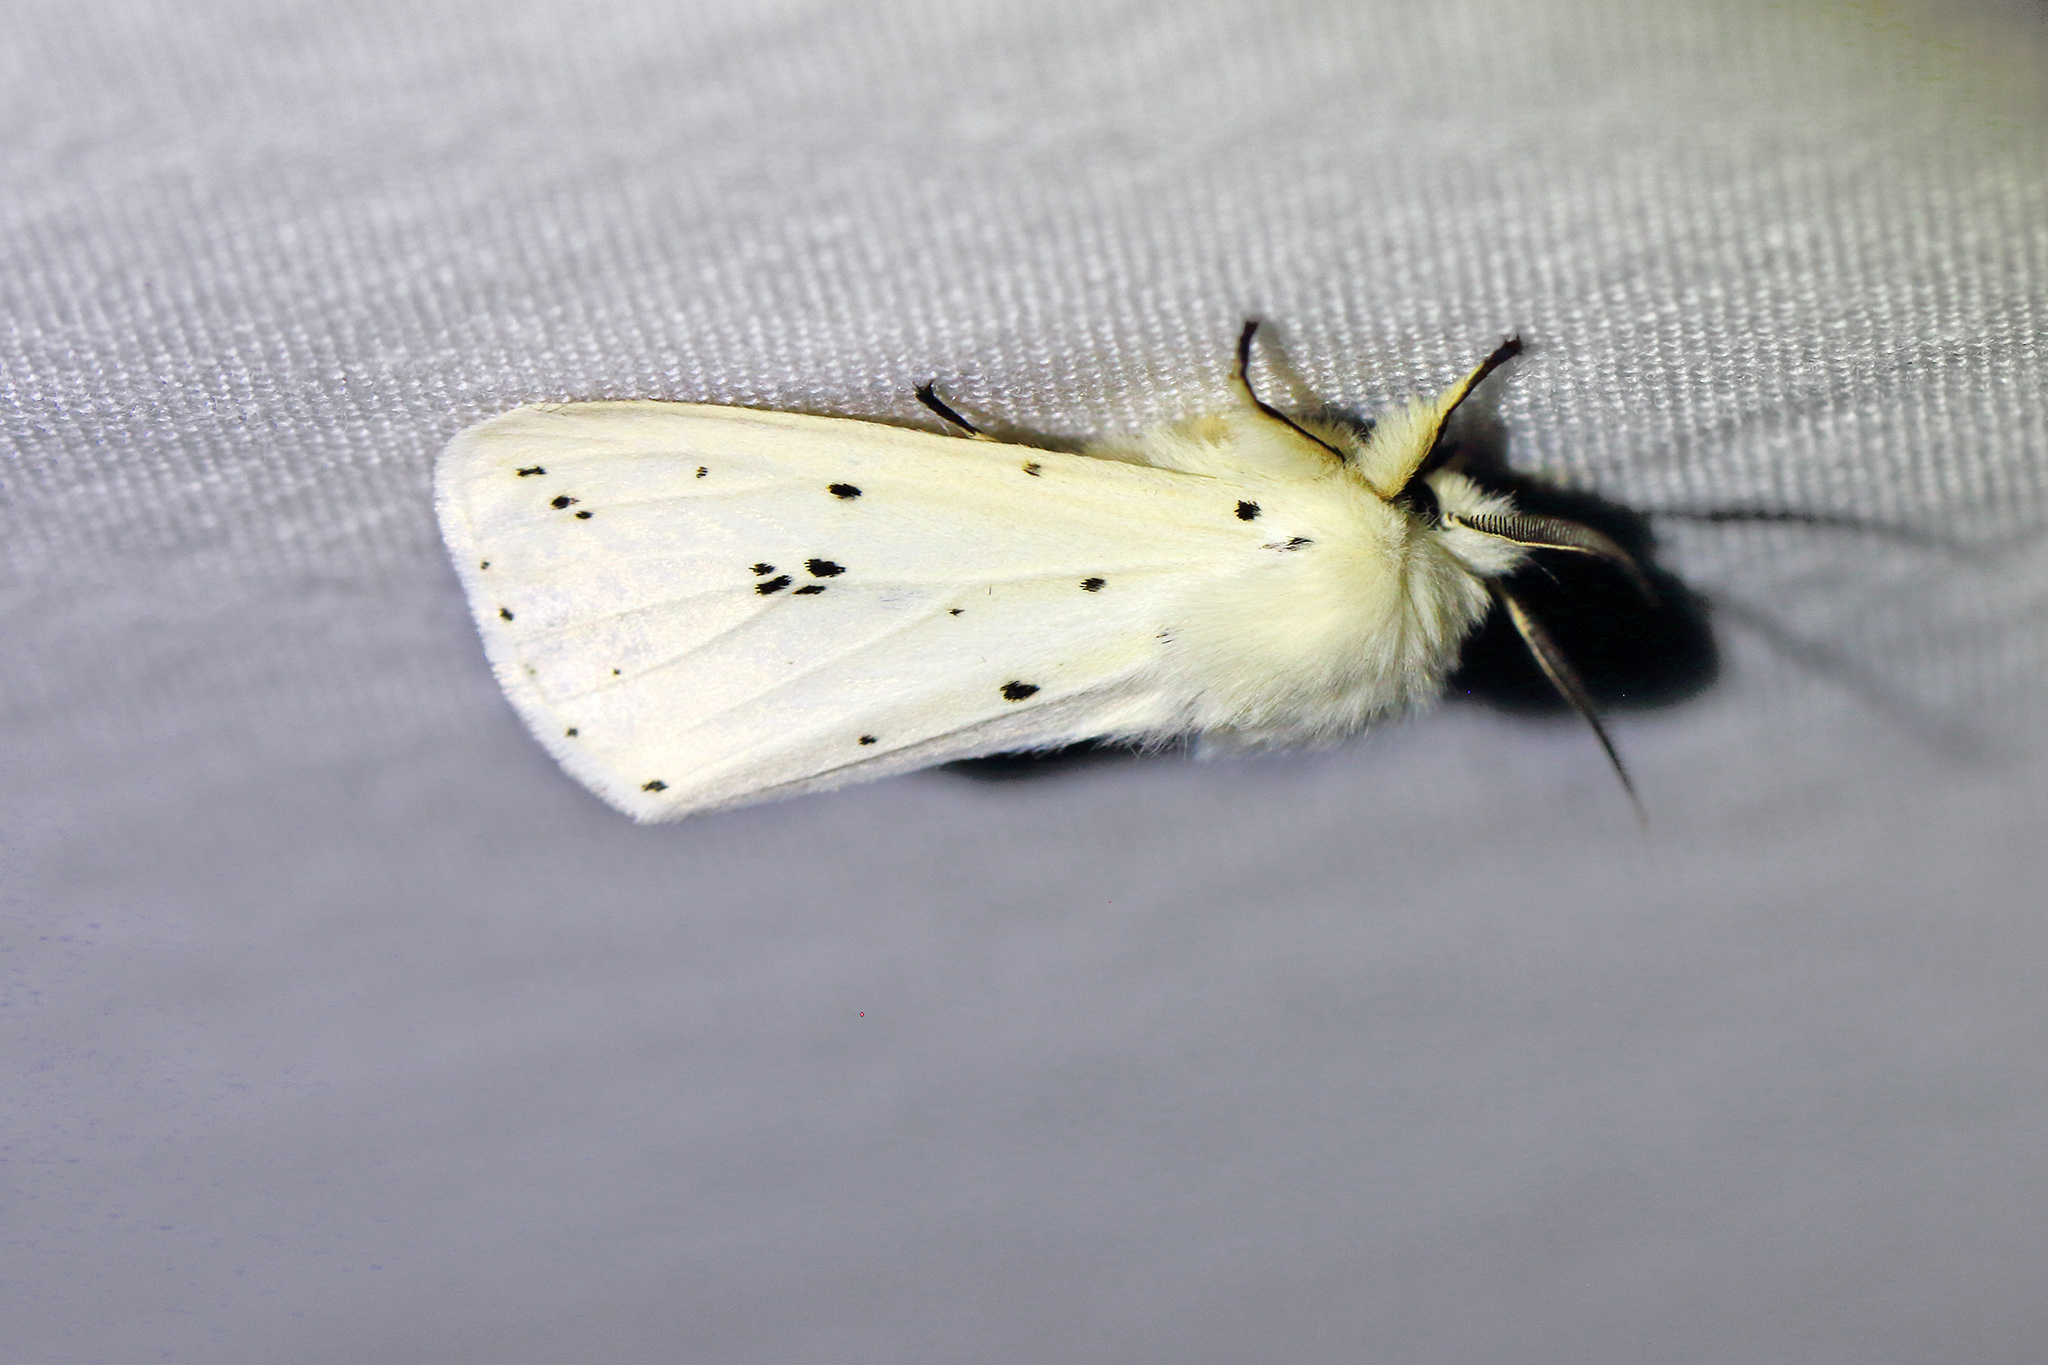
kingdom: Animalia
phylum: Arthropoda
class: Insecta
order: Lepidoptera
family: Erebidae
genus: Spilosoma
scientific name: Spilosoma lubricipeda
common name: White ermine
